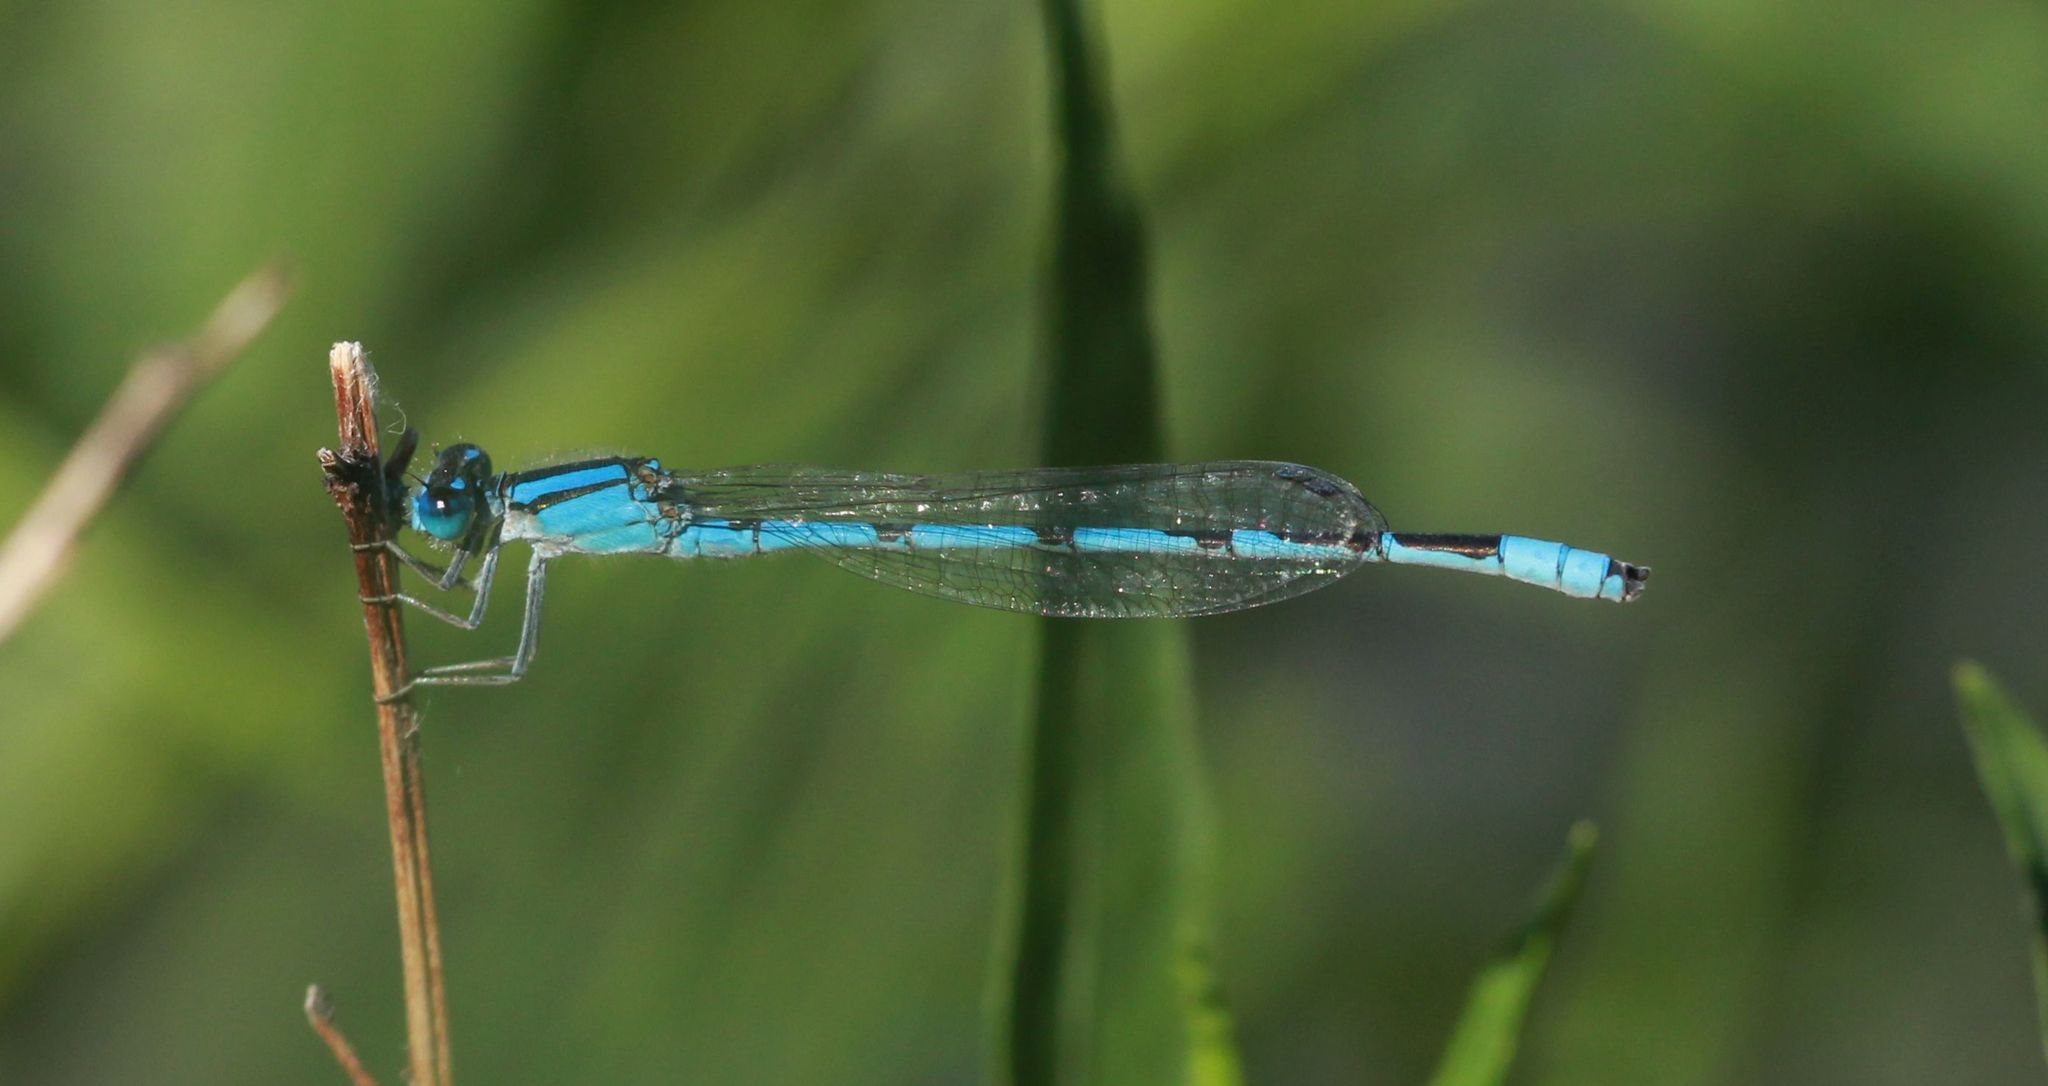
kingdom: Animalia
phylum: Arthropoda
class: Insecta
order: Odonata
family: Coenagrionidae
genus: Enallagma
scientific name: Enallagma civile
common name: Damselfly
